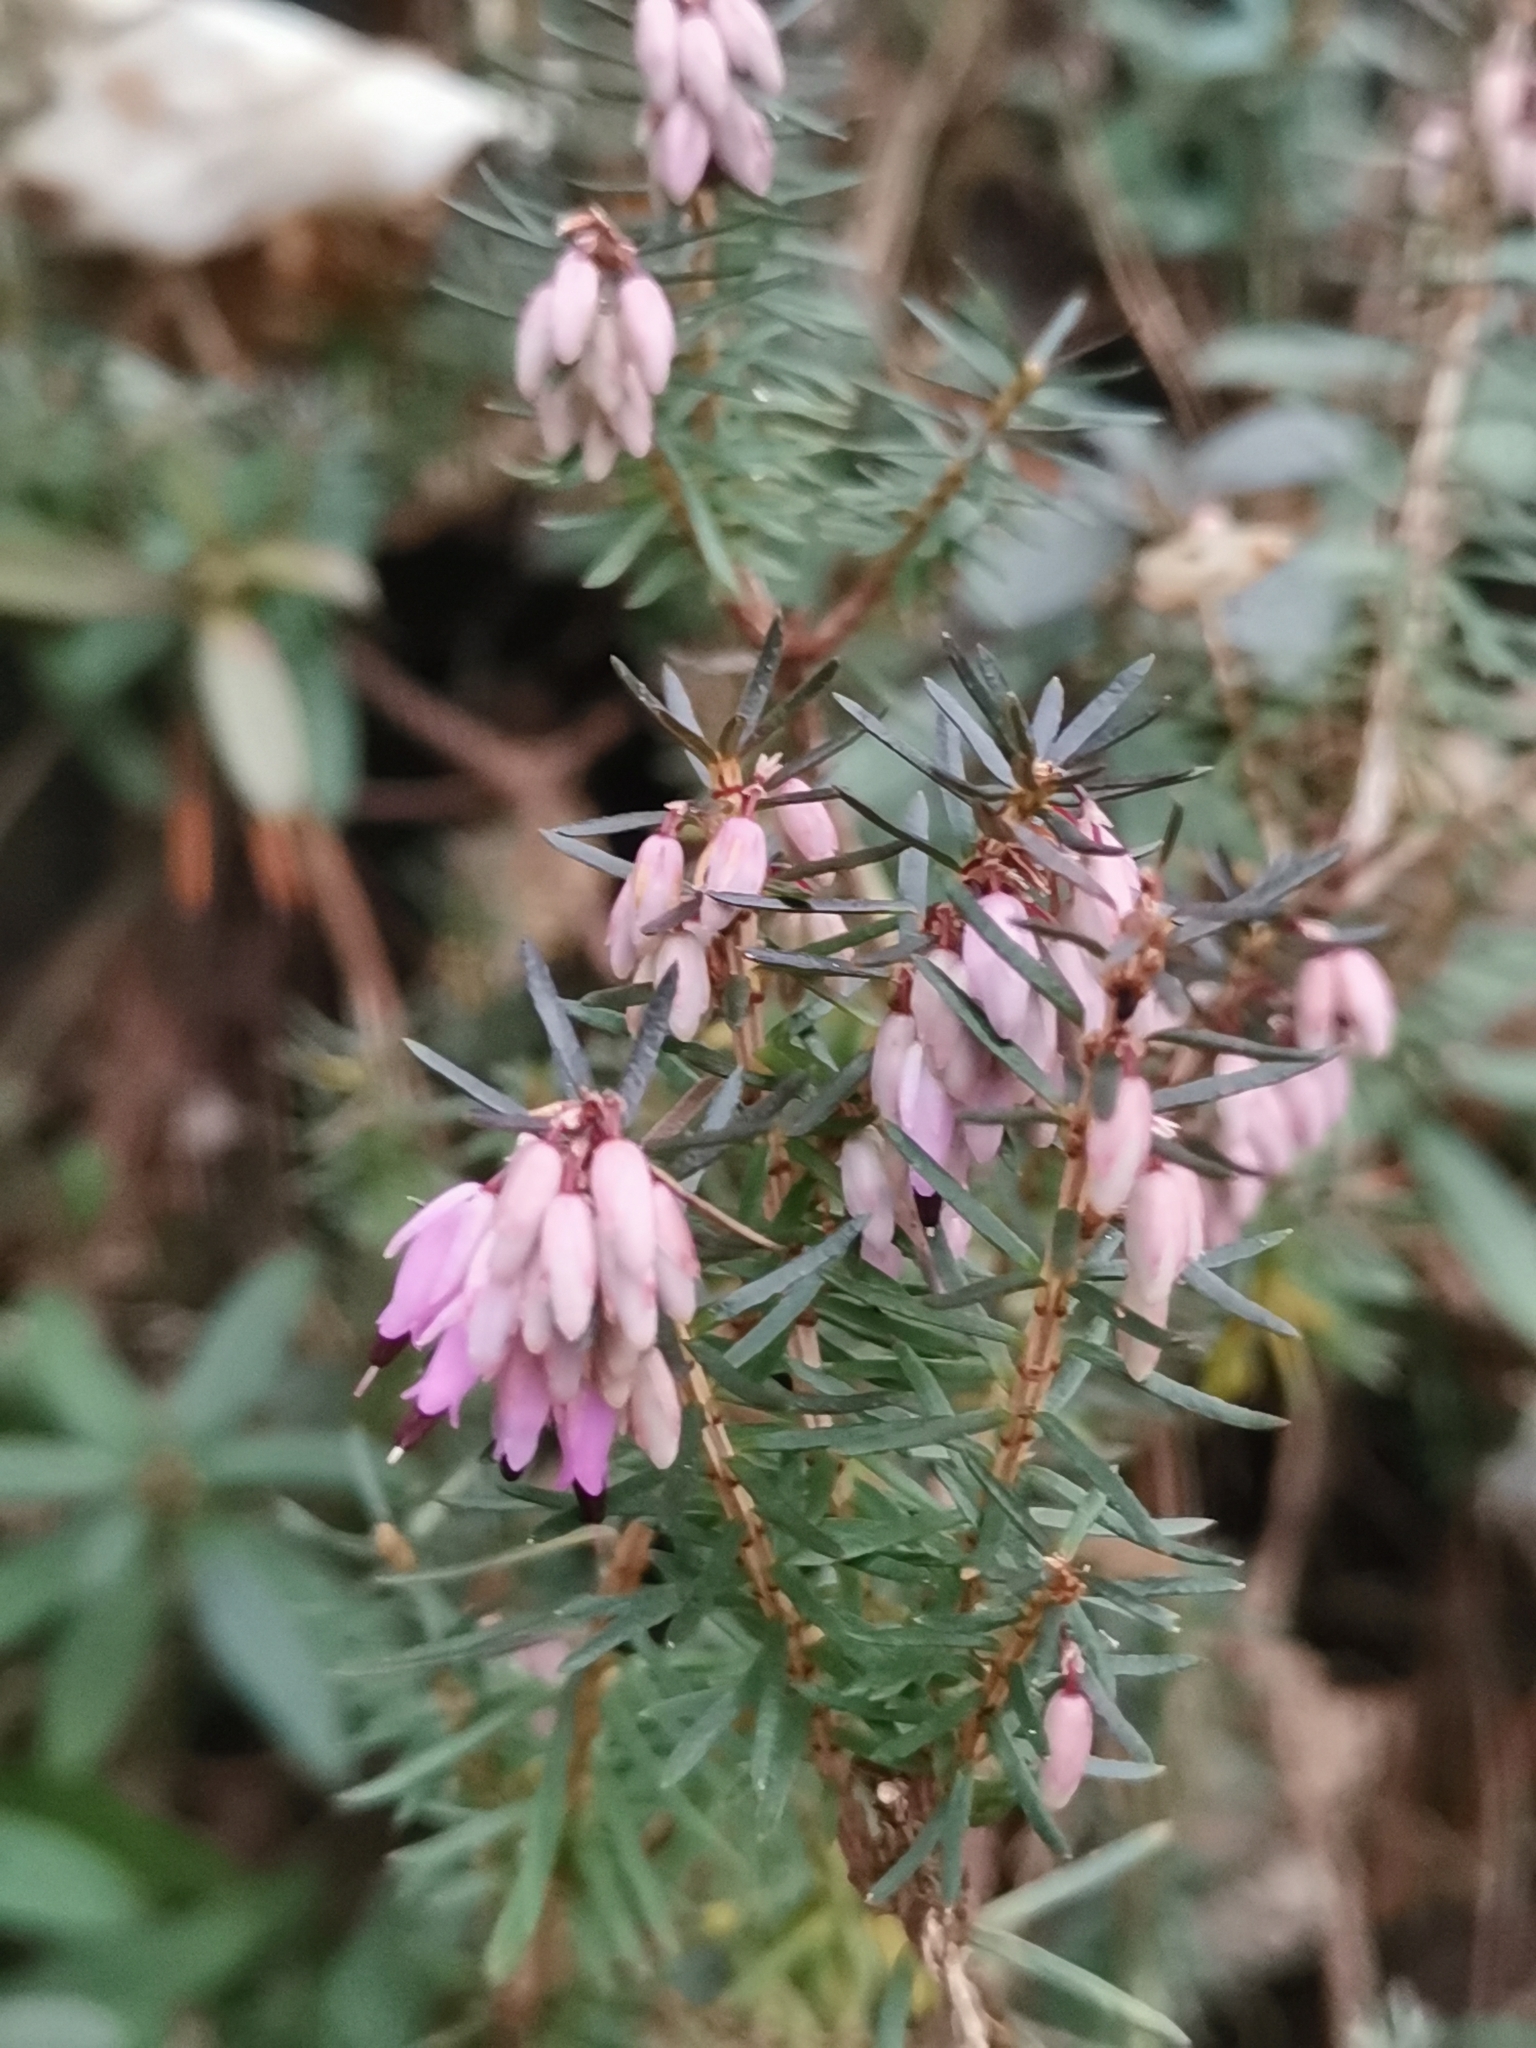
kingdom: Plantae
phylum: Tracheophyta
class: Magnoliopsida
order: Ericales
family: Ericaceae
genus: Erica
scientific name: Erica carnea
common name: Winter heath
